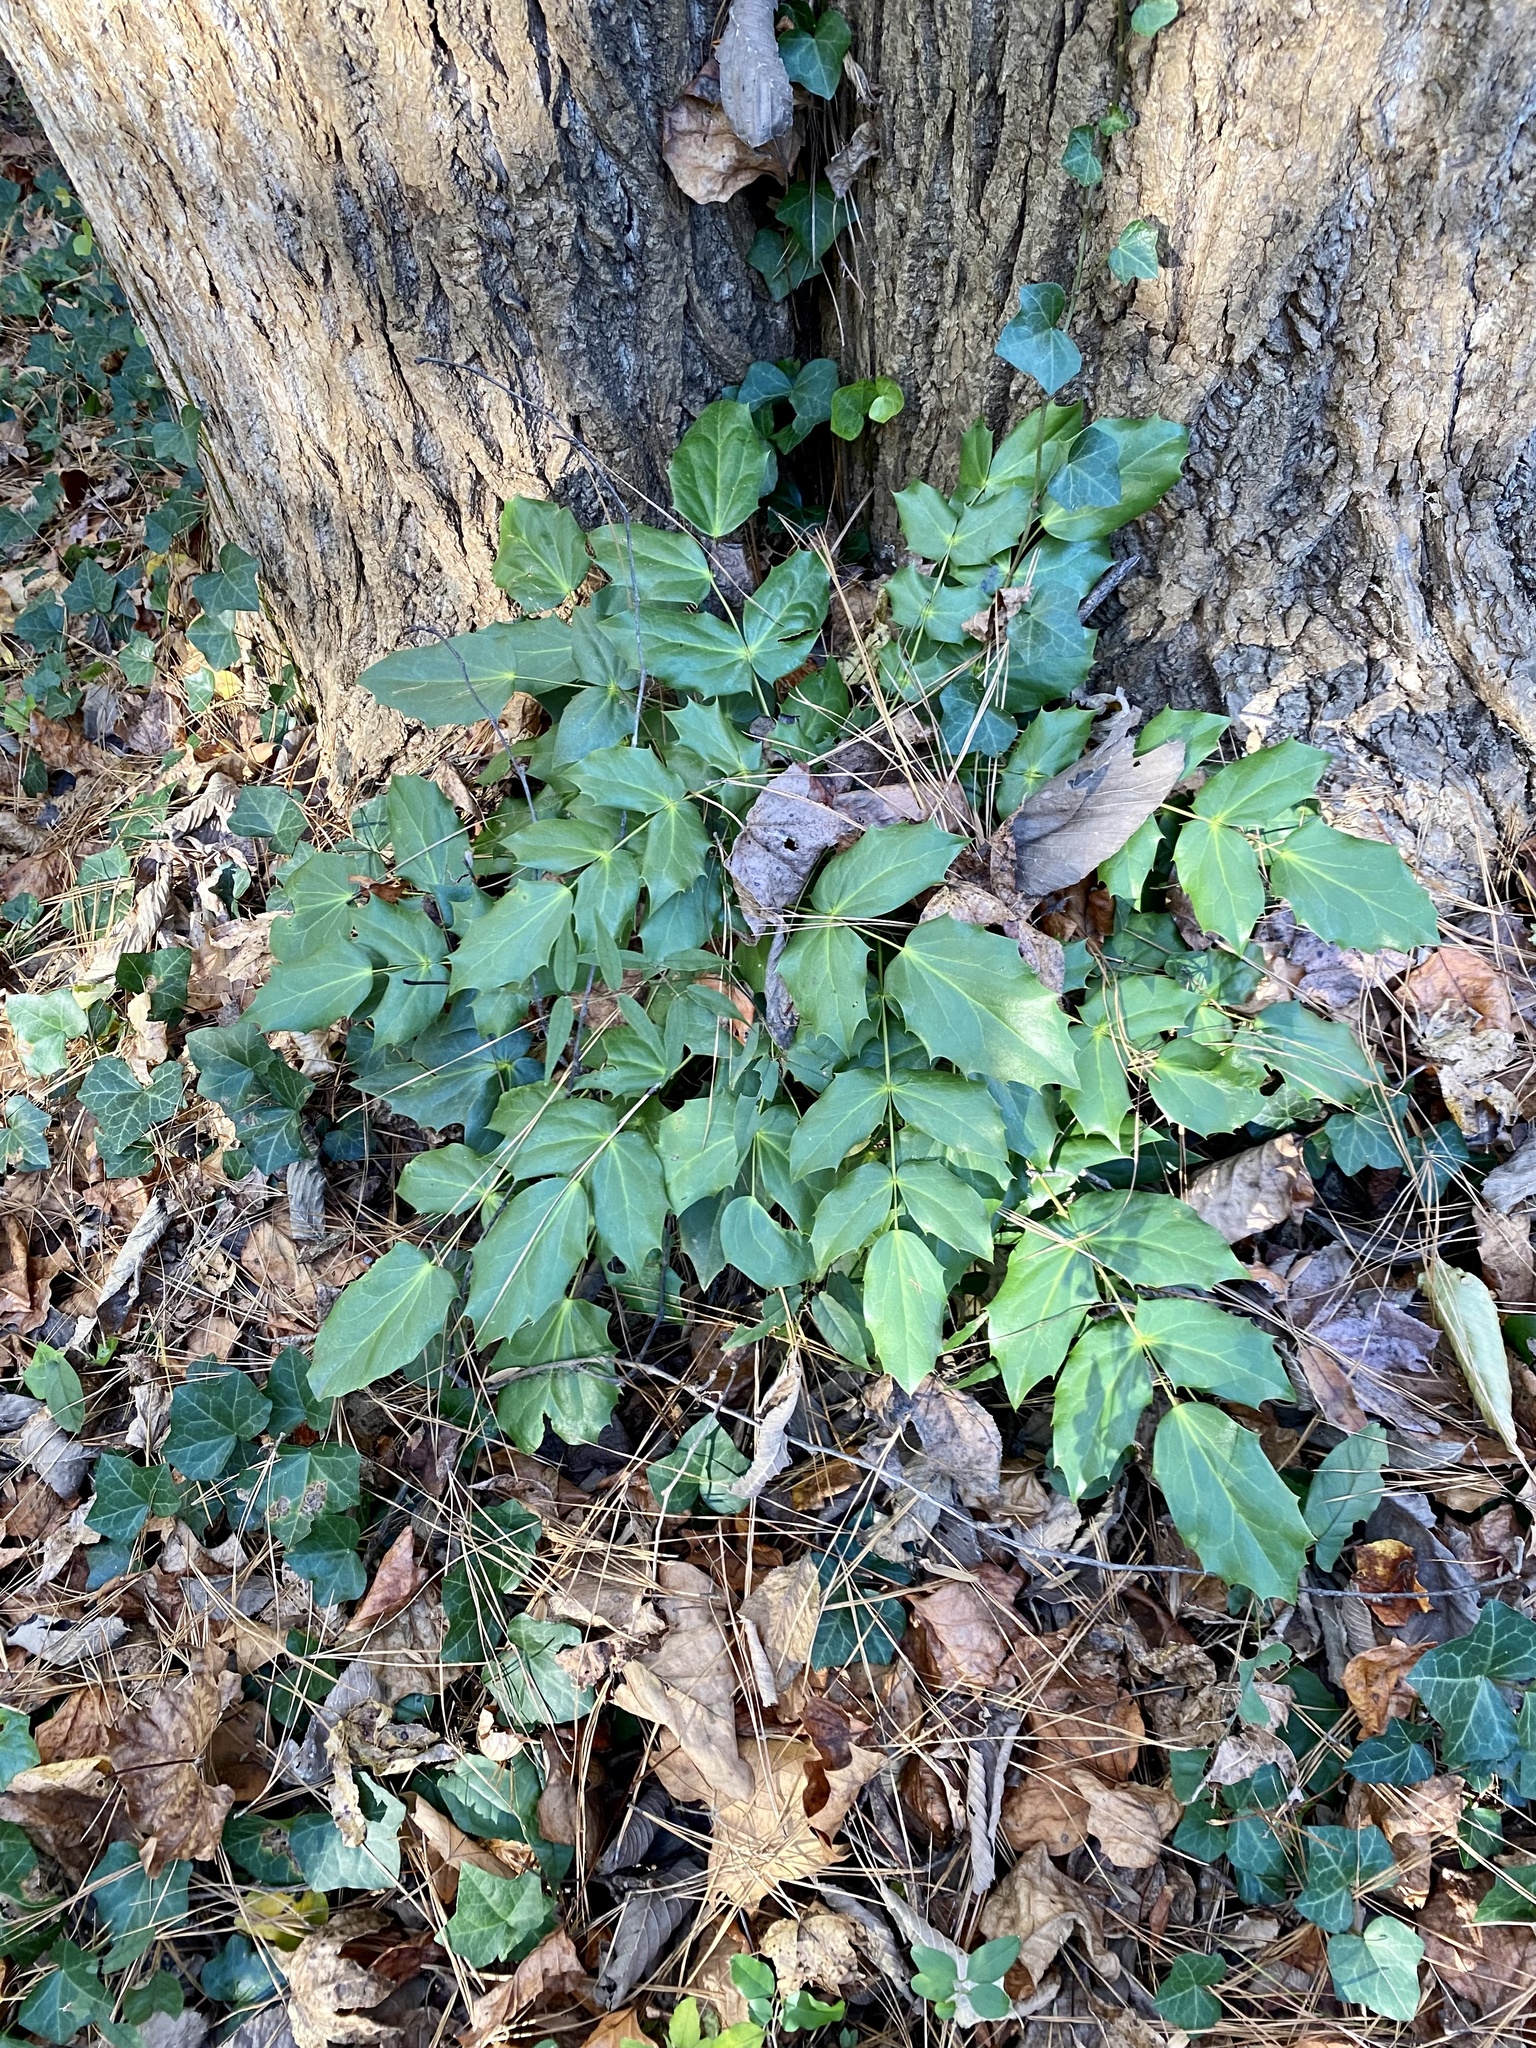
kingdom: Plantae
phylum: Tracheophyta
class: Magnoliopsida
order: Ranunculales
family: Berberidaceae
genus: Mahonia
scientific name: Mahonia bealei
